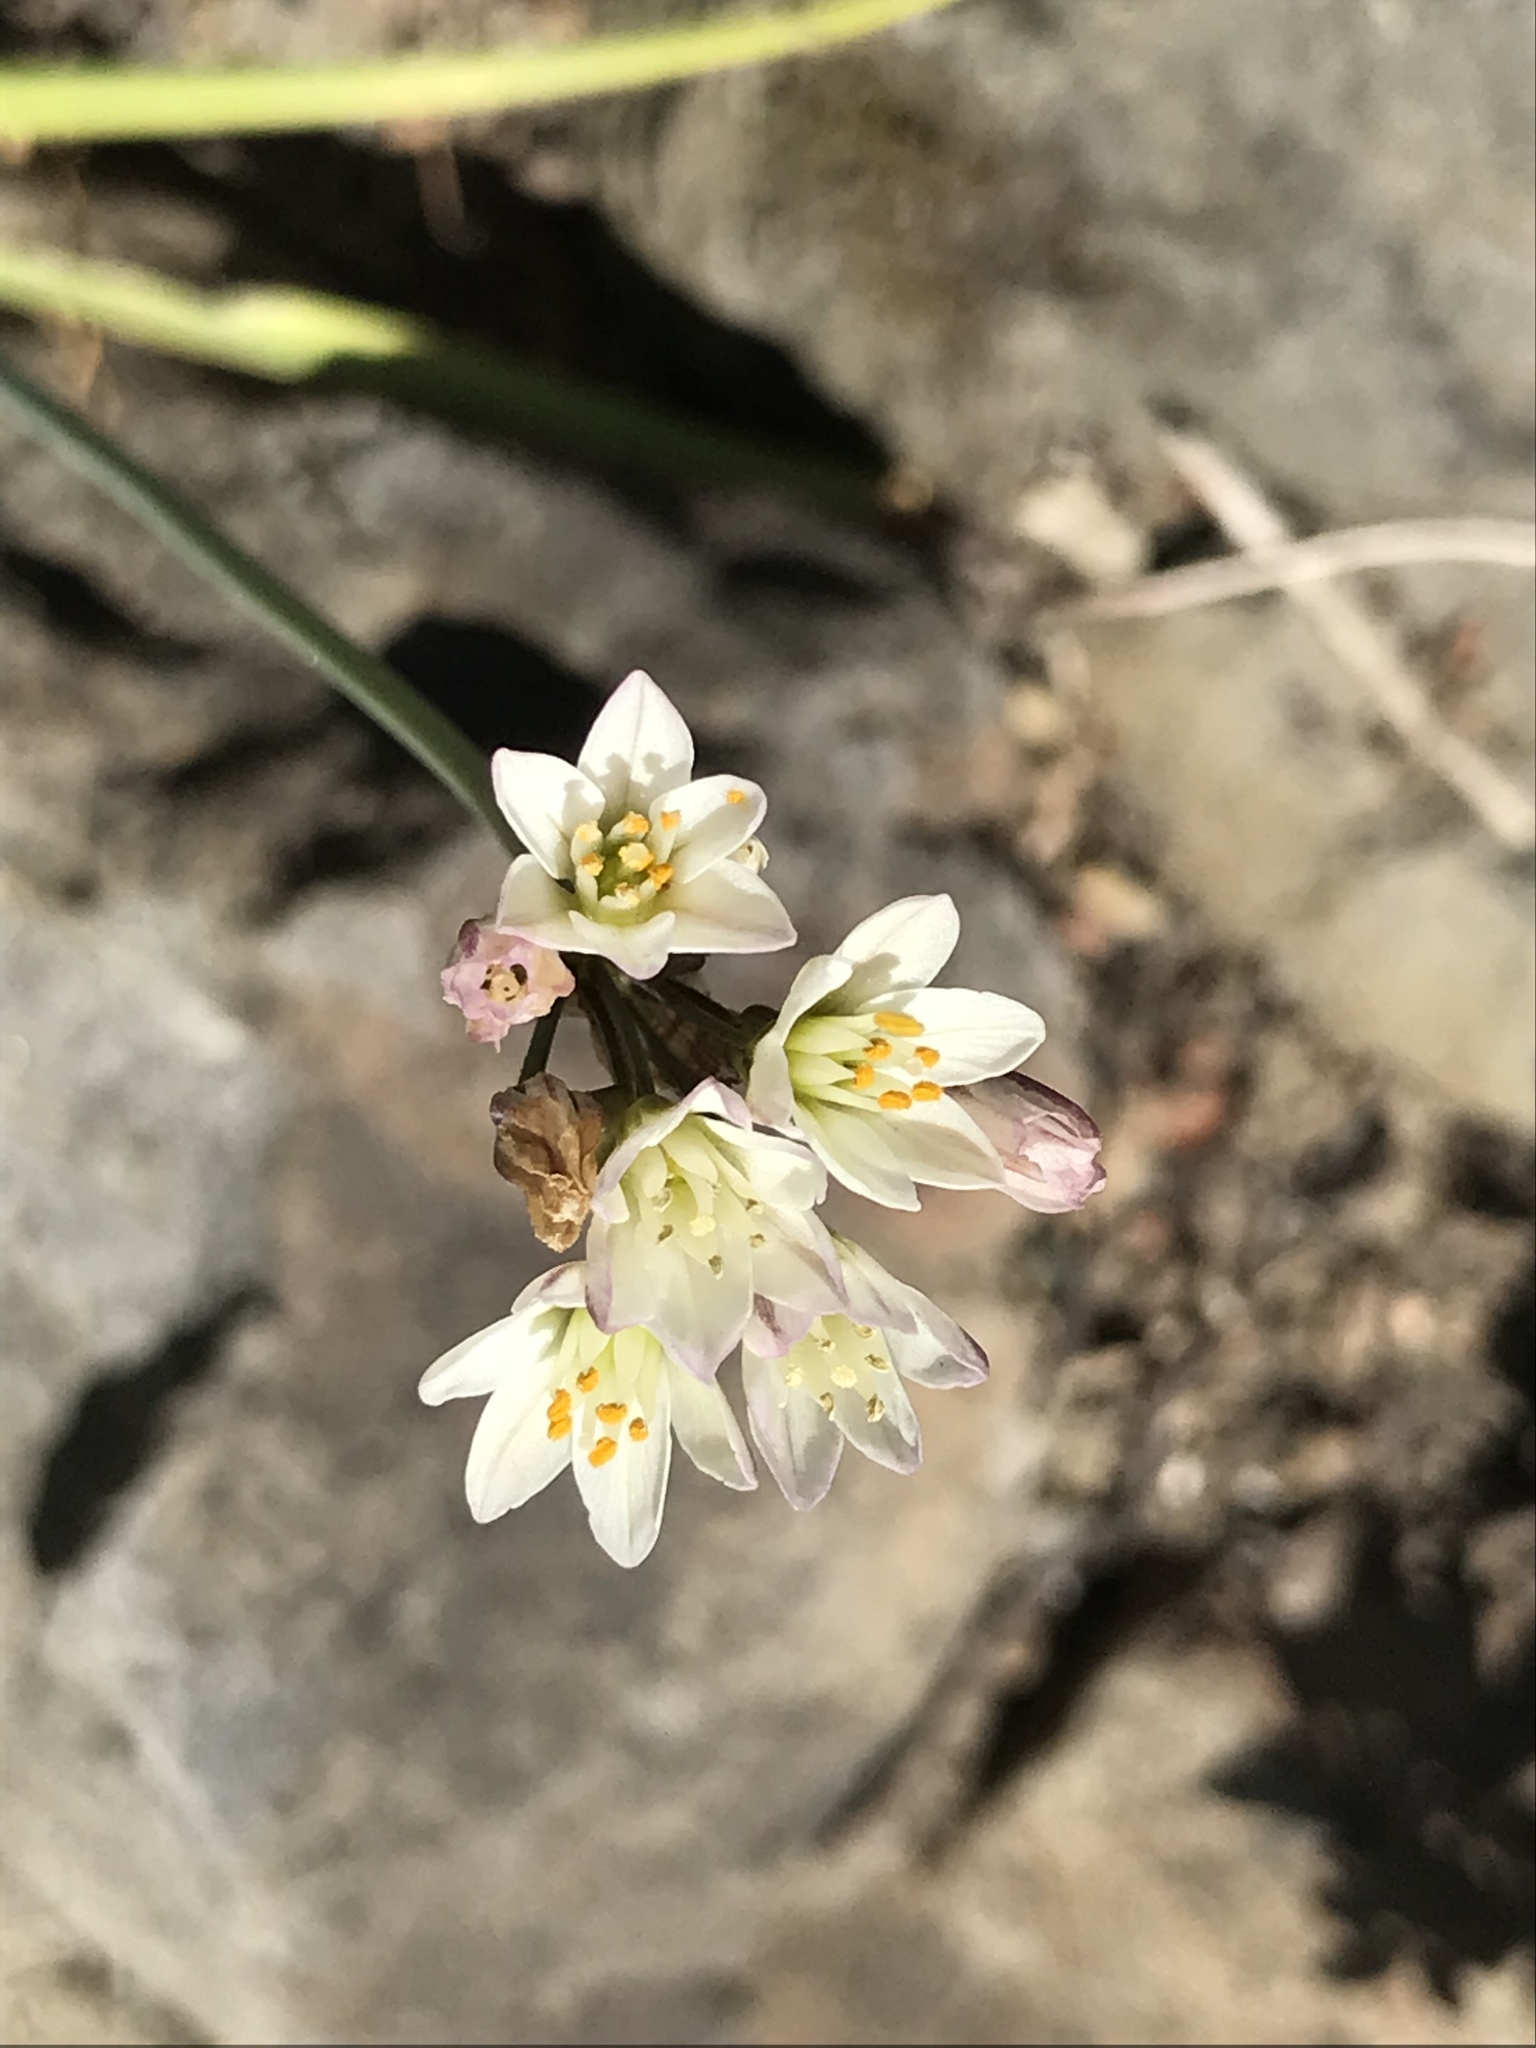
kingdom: Plantae
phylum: Tracheophyta
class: Liliopsida
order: Asparagales
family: Amaryllidaceae
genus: Nothoscordum
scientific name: Nothoscordum gracile
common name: Slender false garlic
